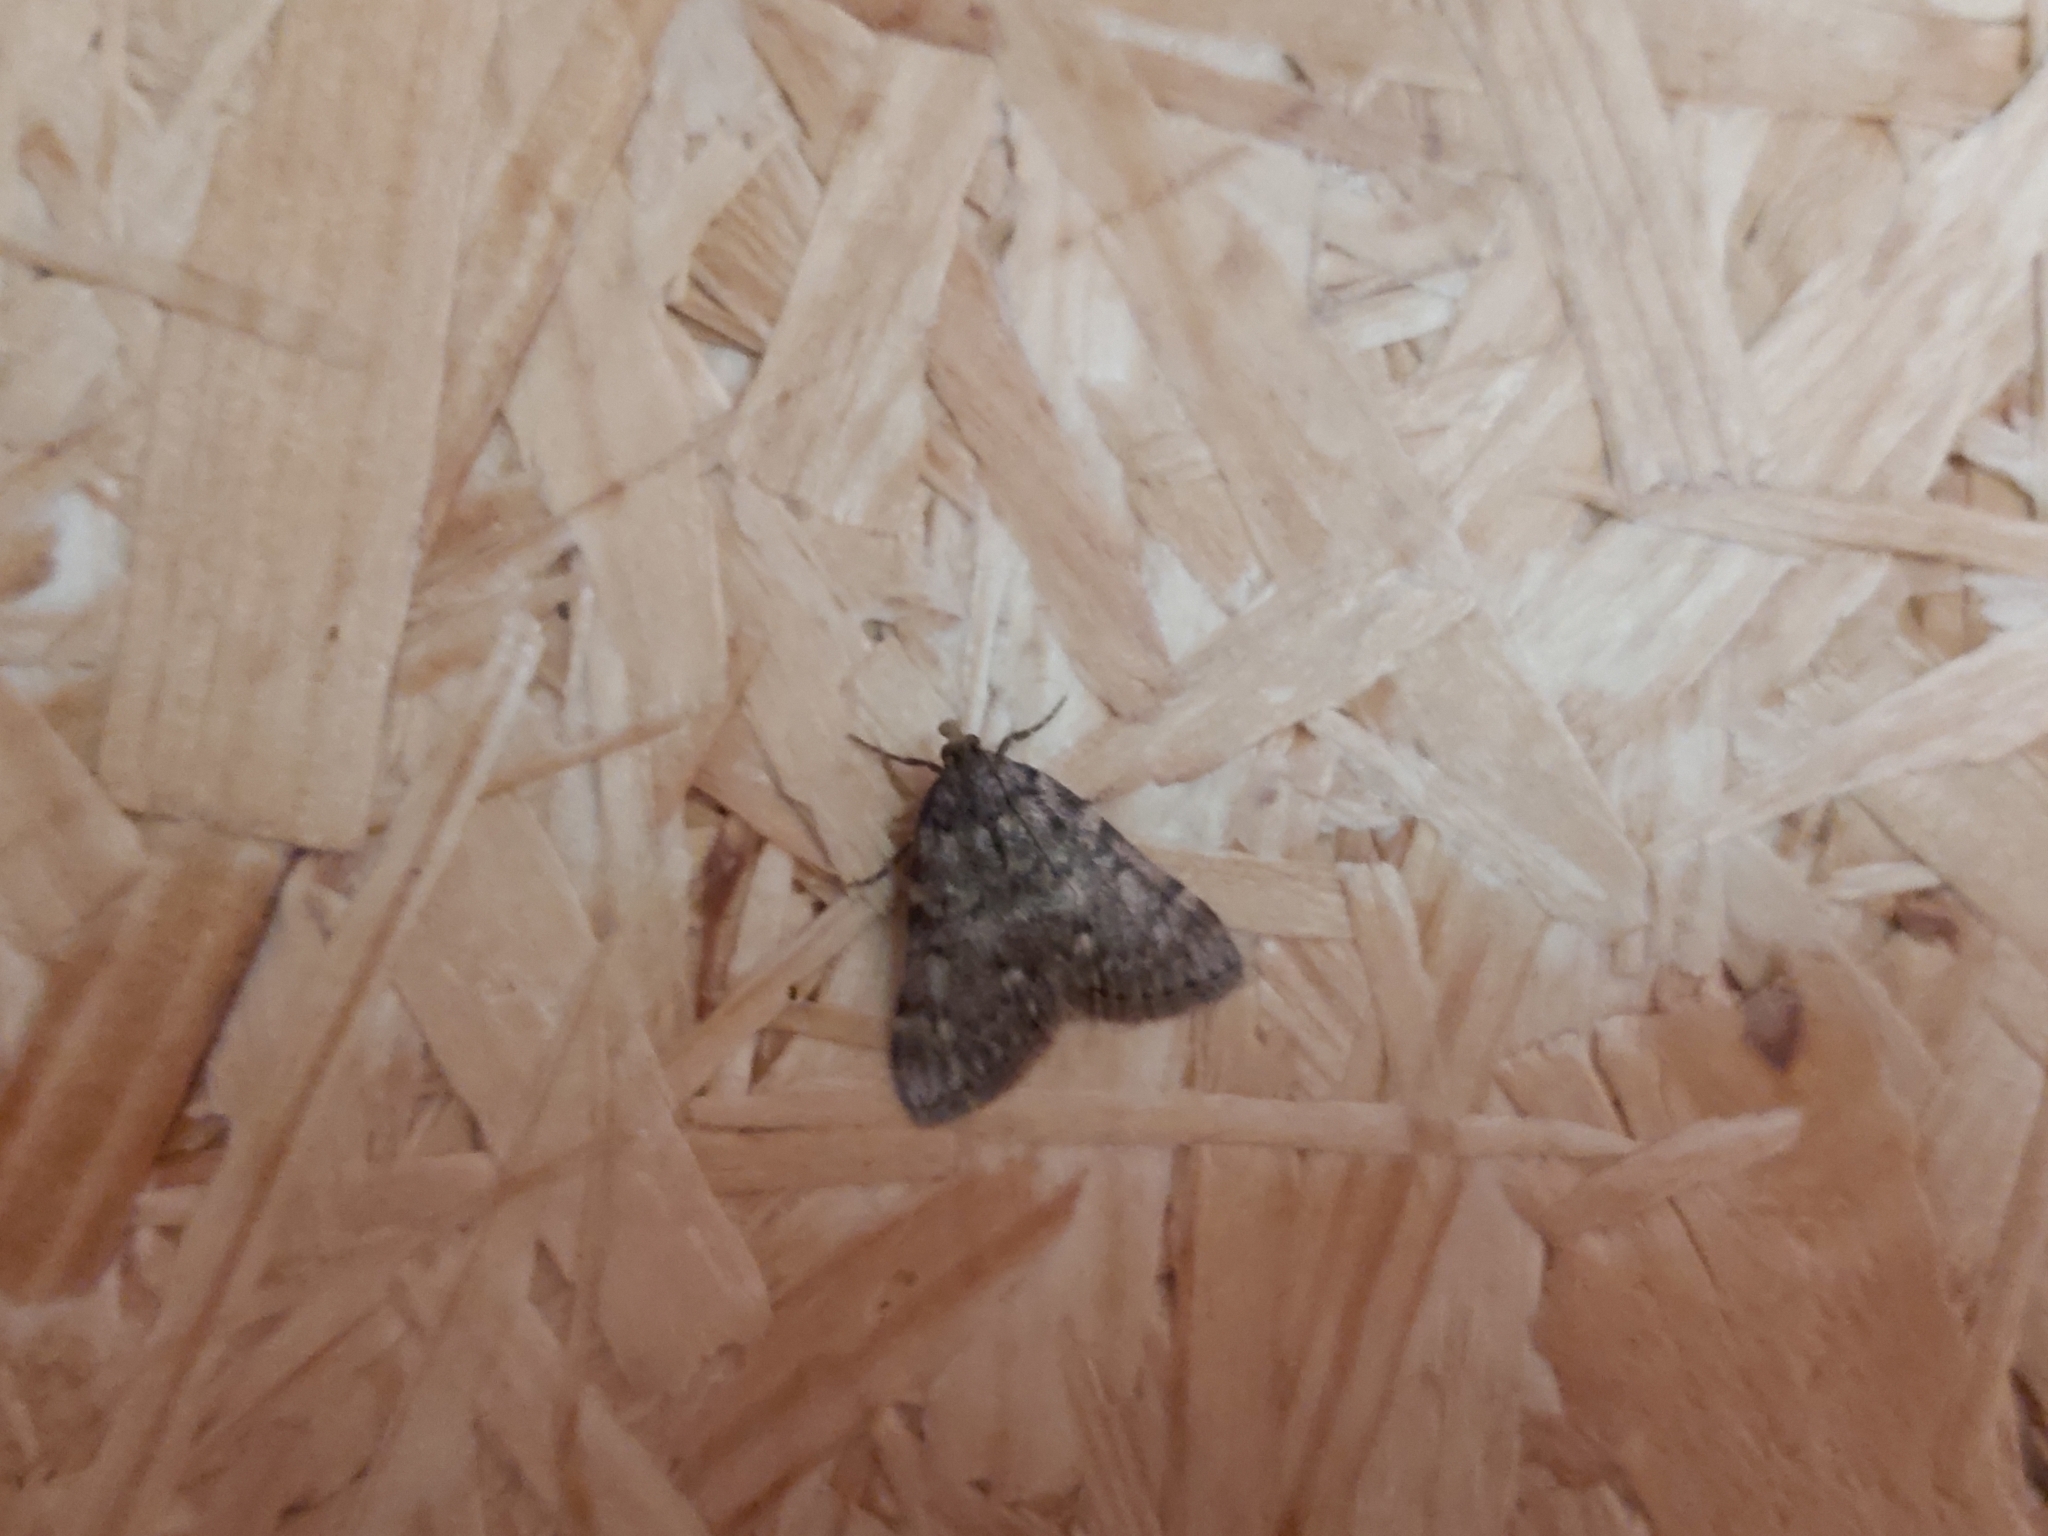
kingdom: Animalia
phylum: Arthropoda
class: Insecta
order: Lepidoptera
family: Pyralidae
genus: Aglossa
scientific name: Aglossa pinguinalis
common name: Large tabby
